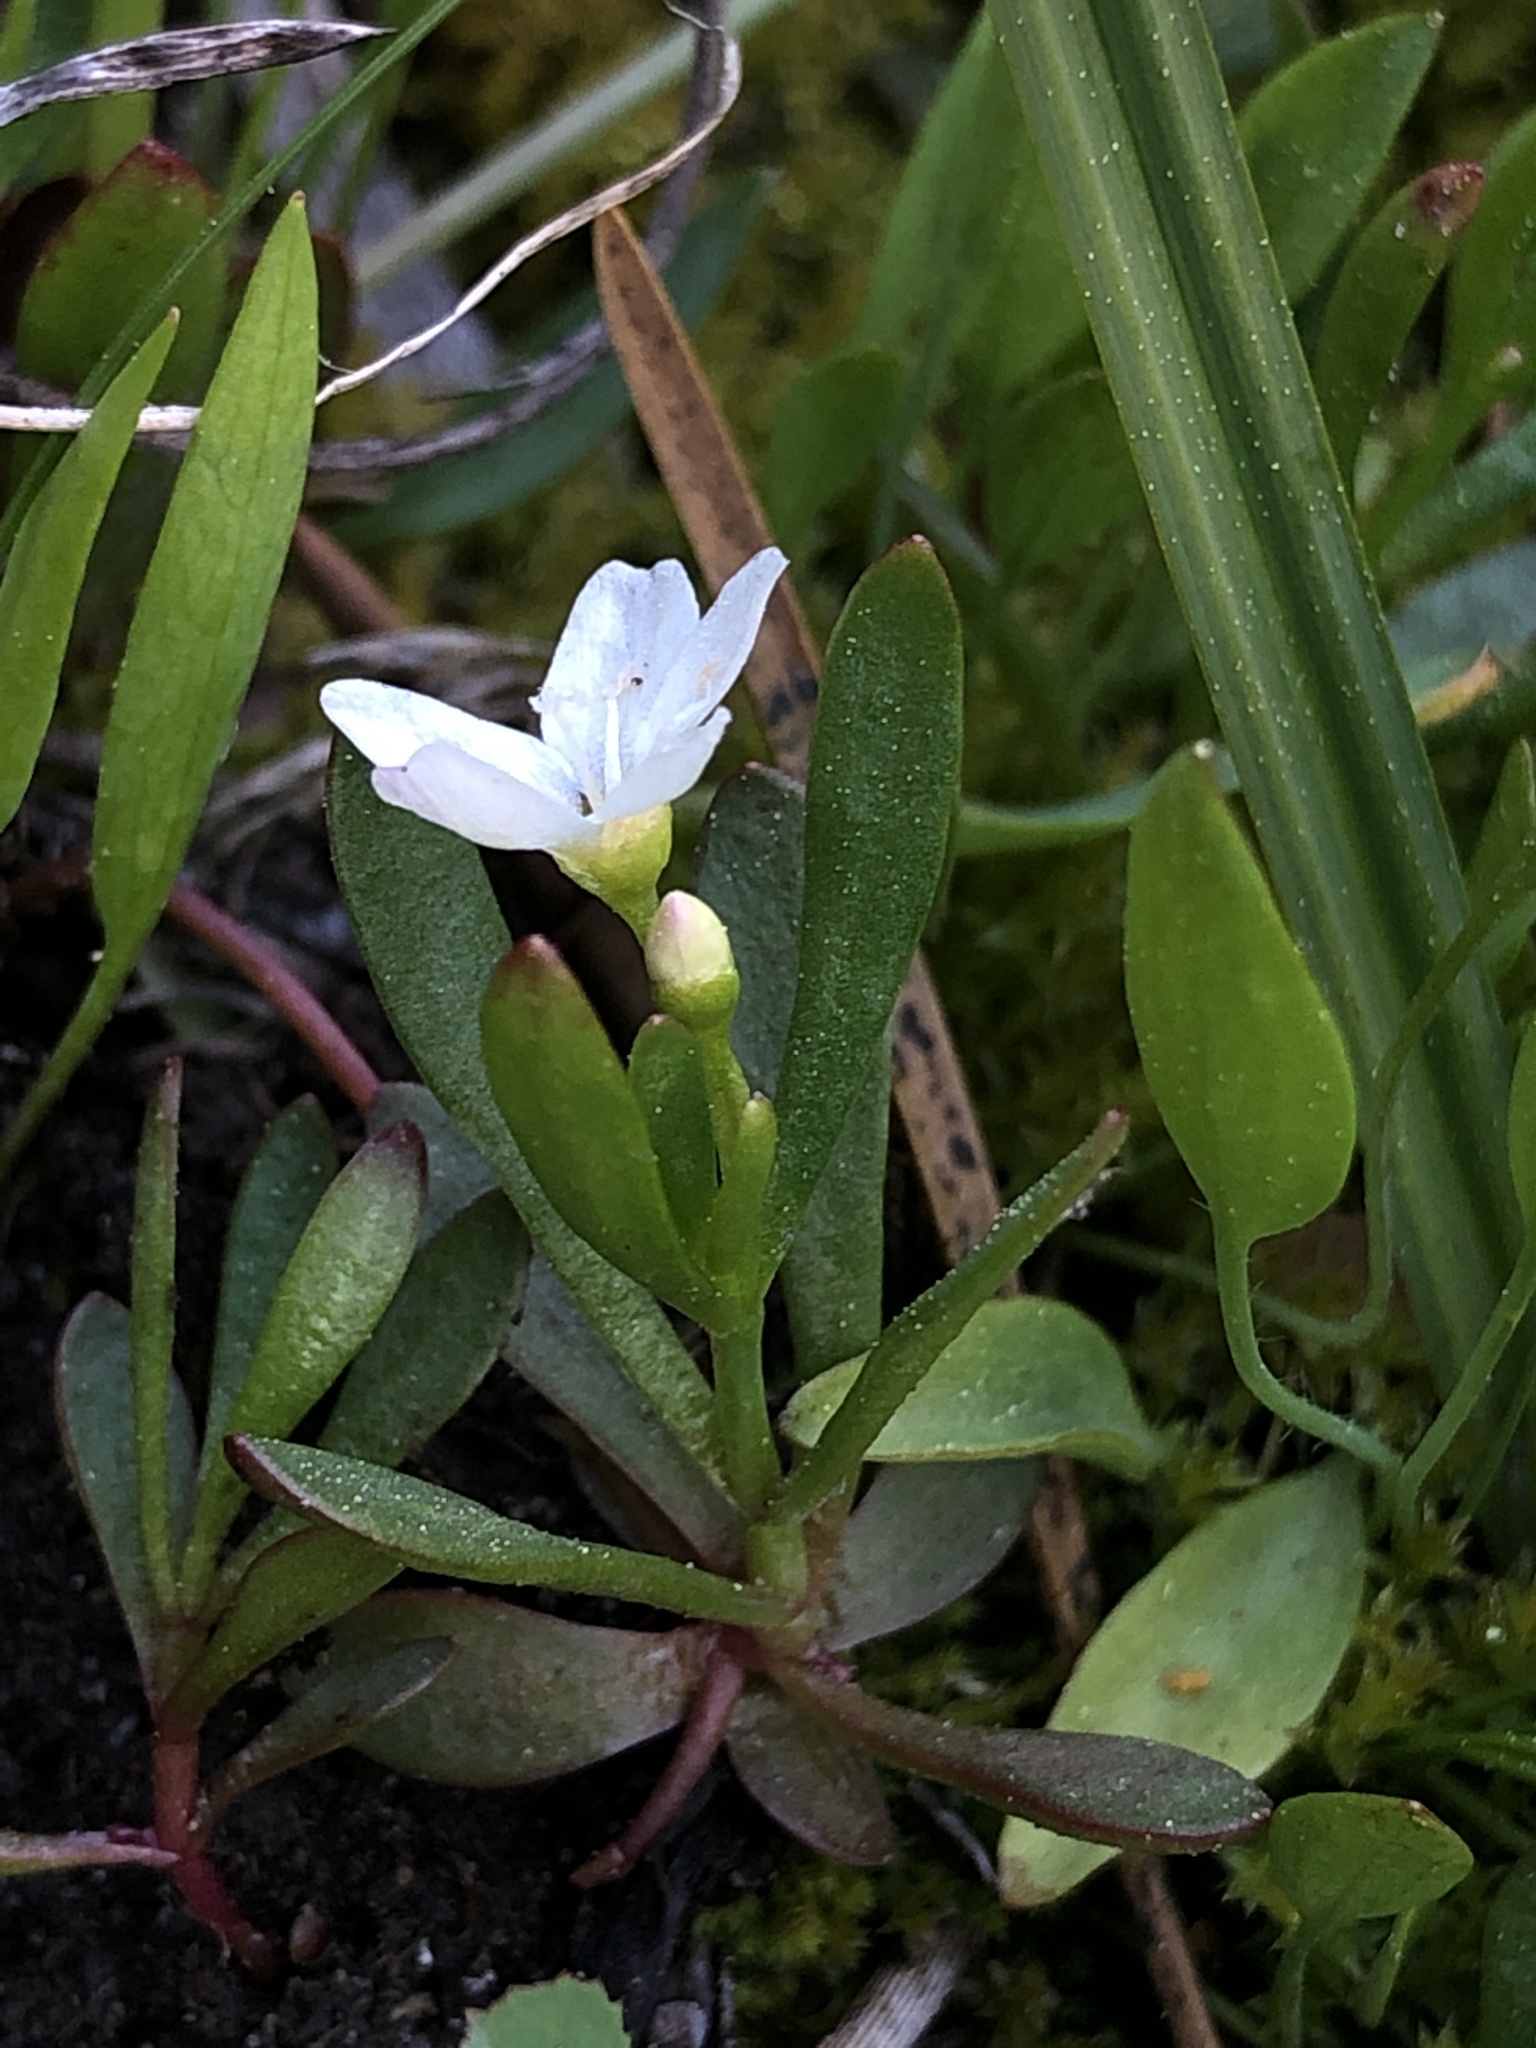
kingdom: Plantae
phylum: Tracheophyta
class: Magnoliopsida
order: Caryophyllales
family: Montiaceae
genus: Montia
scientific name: Montia chamissoi
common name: Chamisso's candyflower
